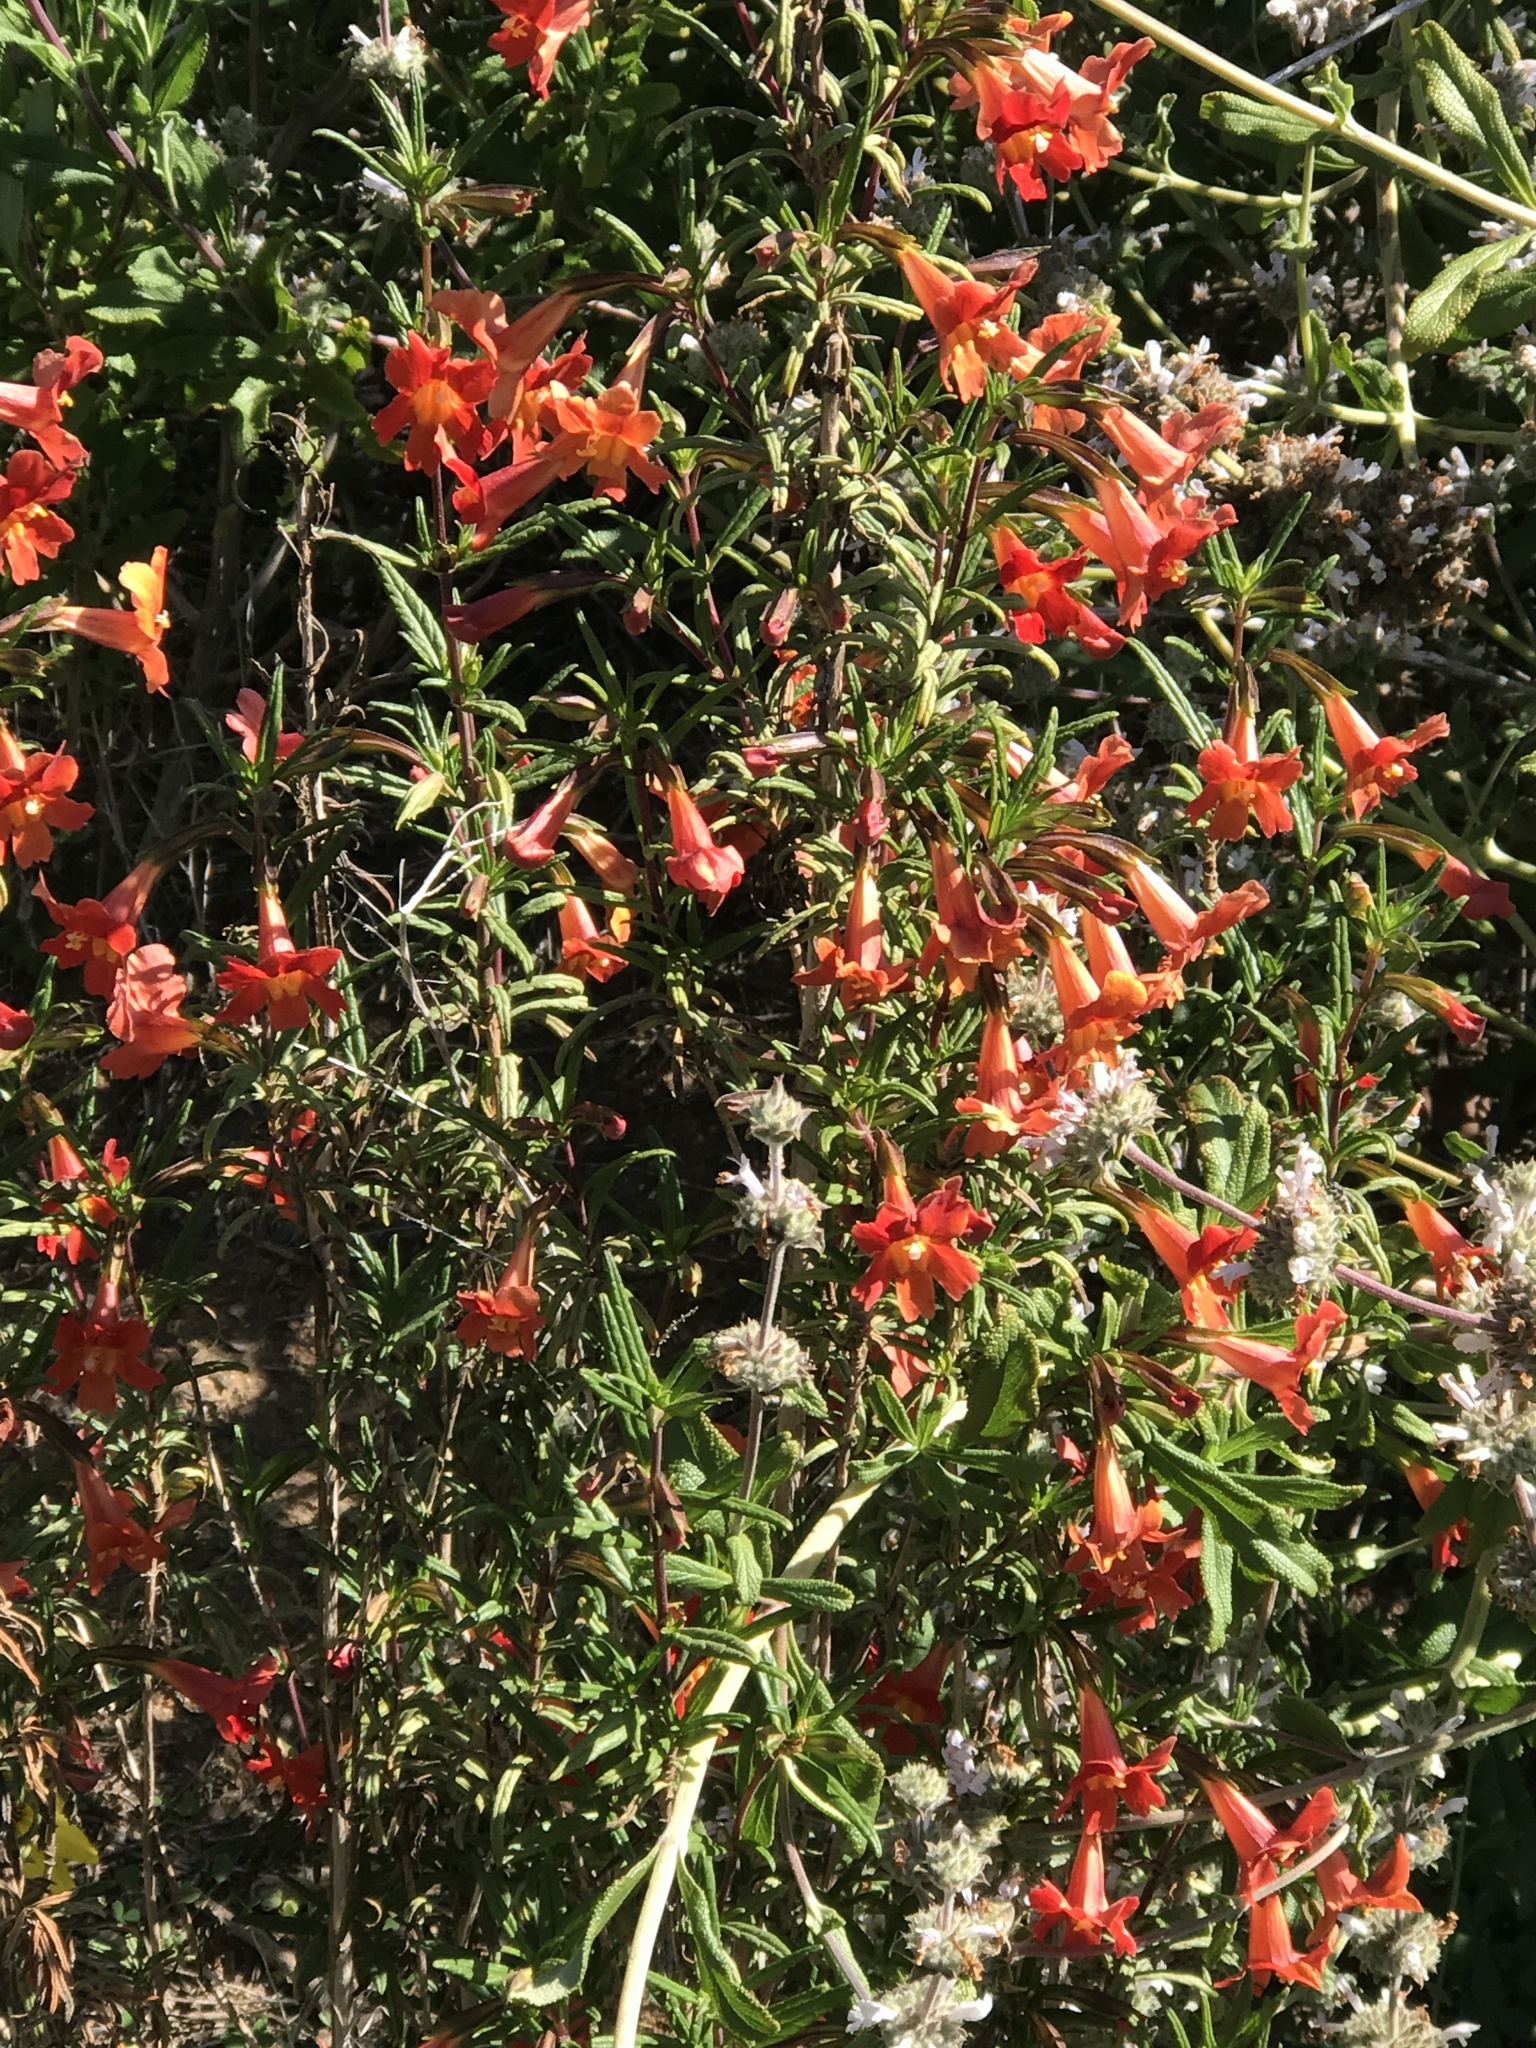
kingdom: Plantae
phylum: Tracheophyta
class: Magnoliopsida
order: Lamiales
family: Phrymaceae
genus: Diplacus
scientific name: Diplacus puniceus
